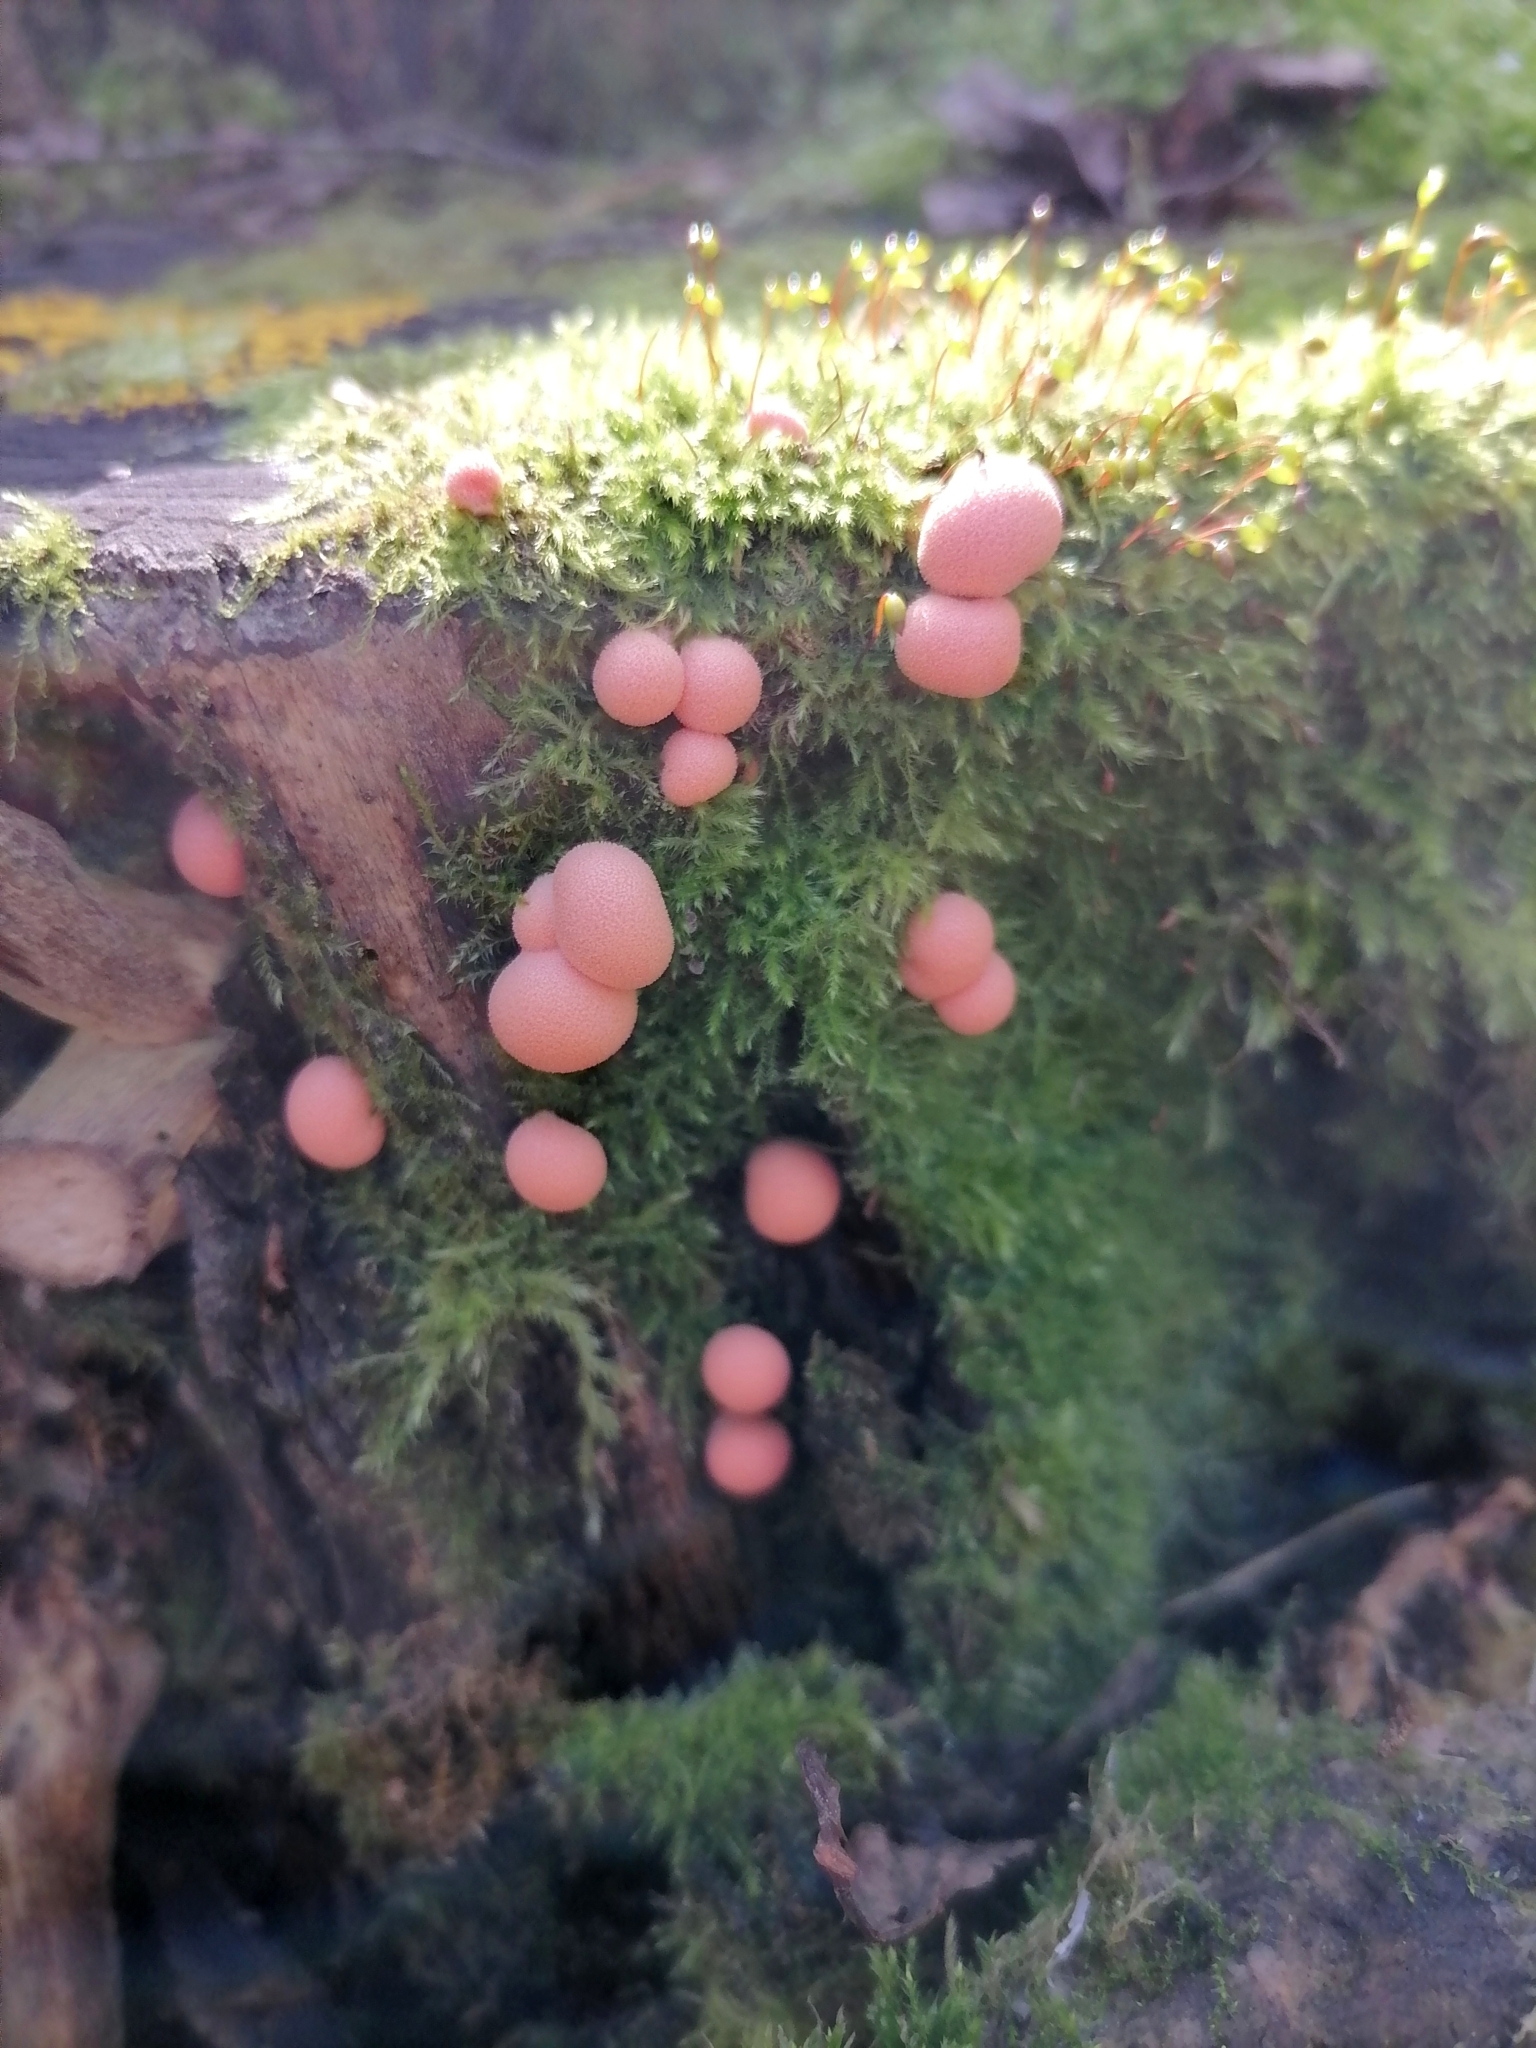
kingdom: Protozoa
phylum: Mycetozoa
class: Myxomycetes
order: Cribrariales
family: Tubiferaceae
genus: Lycogala
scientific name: Lycogala epidendrum
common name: Wolf's milk
